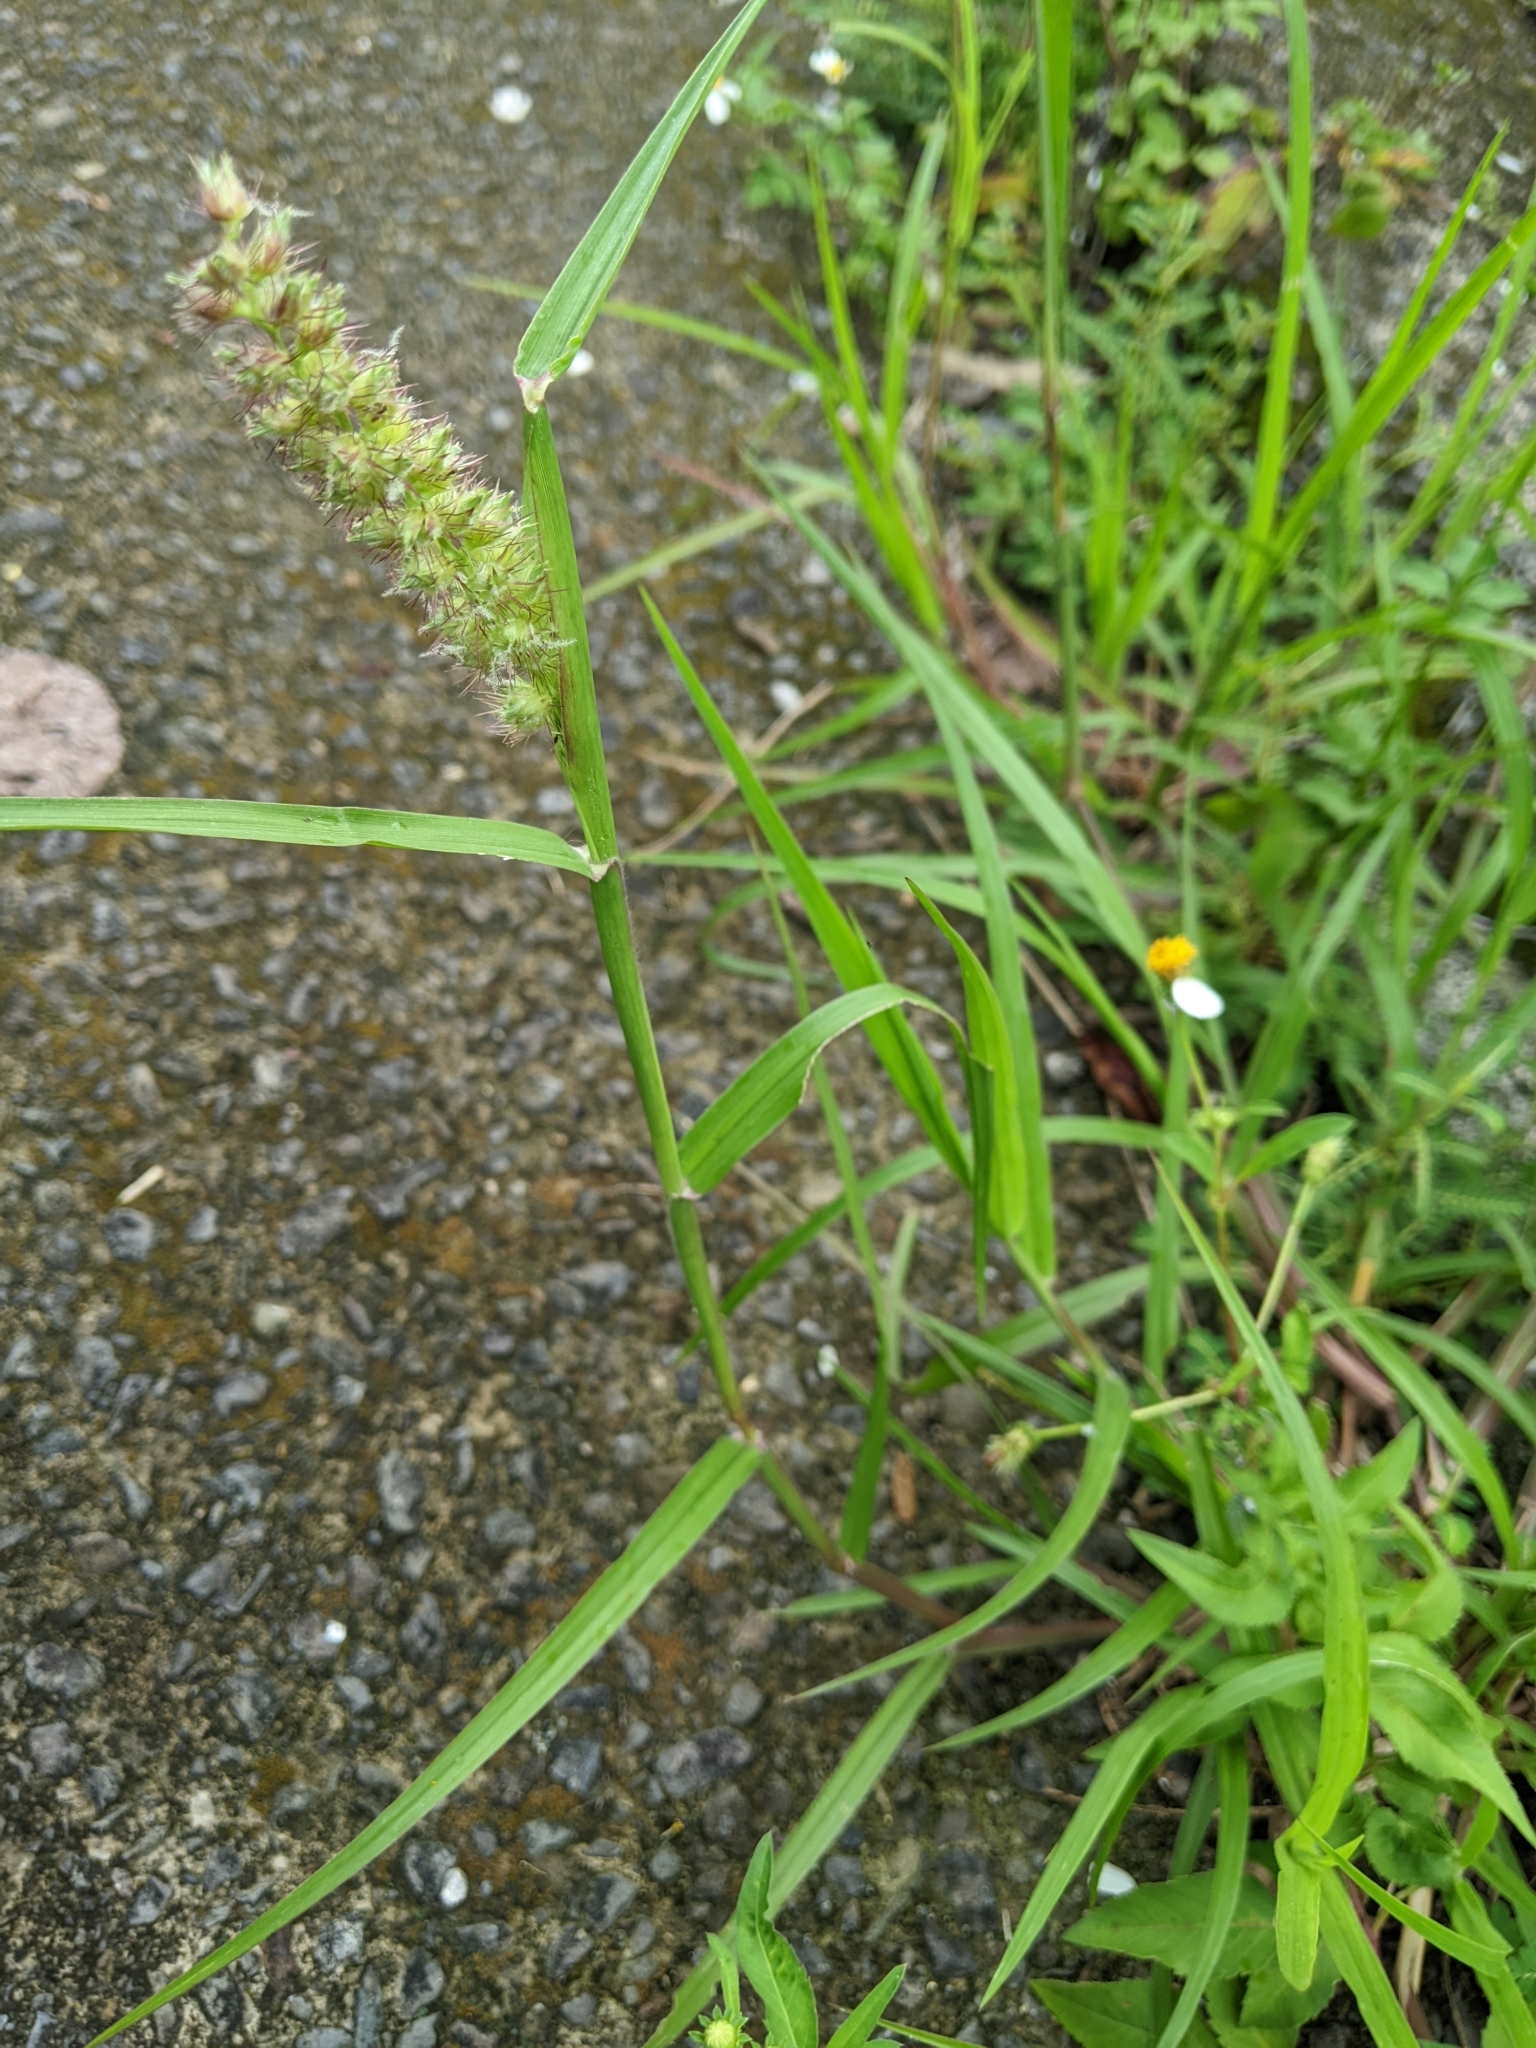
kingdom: Plantae
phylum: Tracheophyta
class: Liliopsida
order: Poales
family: Poaceae
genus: Cenchrus
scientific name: Cenchrus echinatus
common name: Southern sandbur
